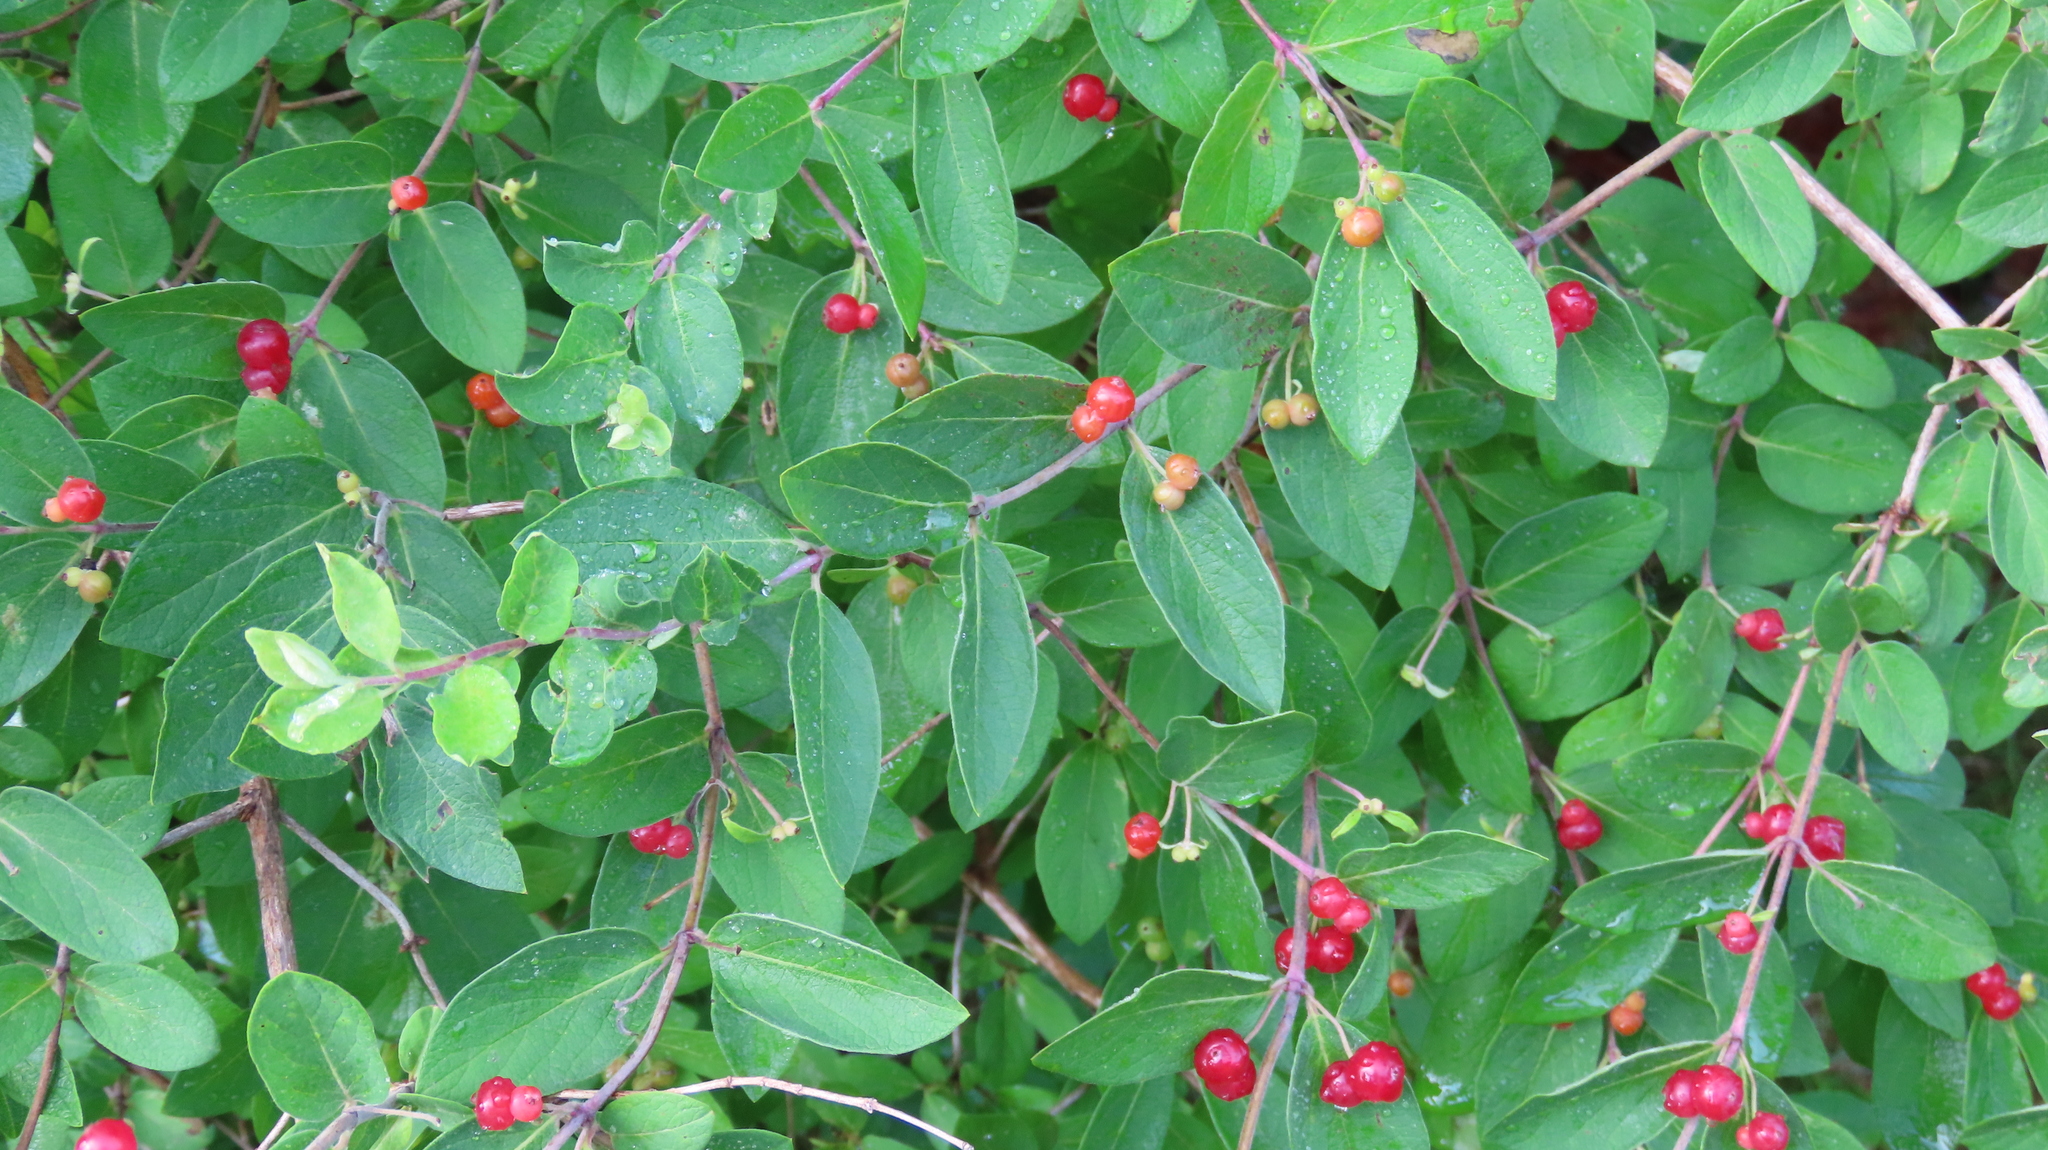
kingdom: Plantae
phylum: Tracheophyta
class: Magnoliopsida
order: Dipsacales
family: Caprifoliaceae
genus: Lonicera
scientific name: Lonicera tatarica
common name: Tatarian honeysuckle
